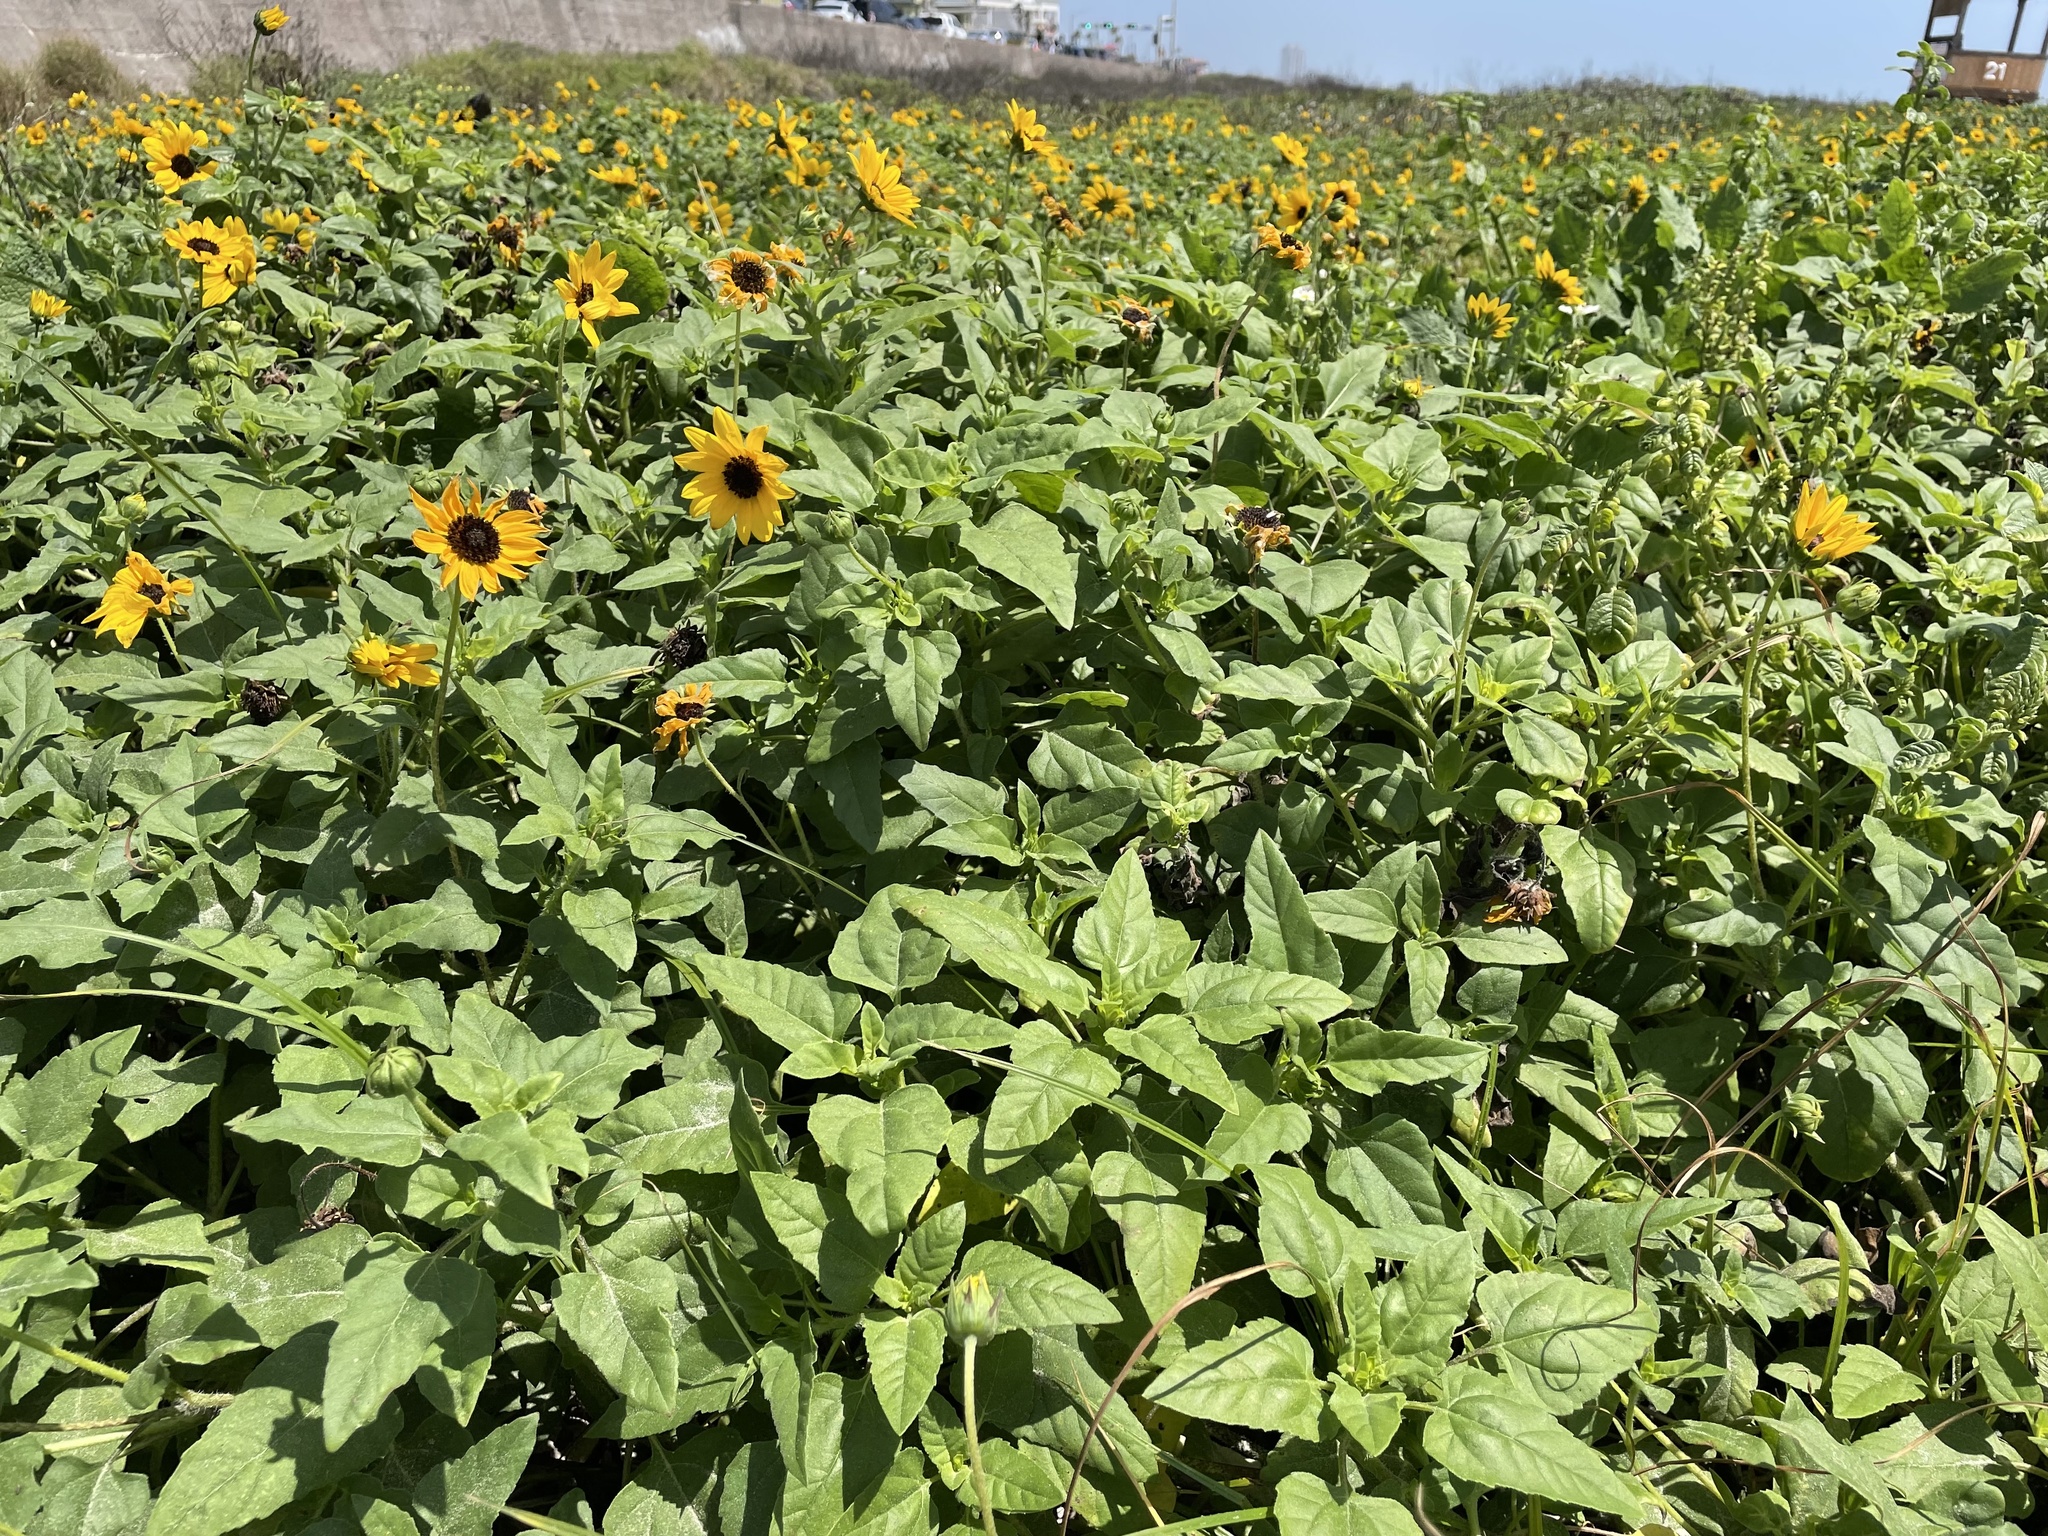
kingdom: Plantae
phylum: Tracheophyta
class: Magnoliopsida
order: Asterales
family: Asteraceae
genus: Helianthus
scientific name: Helianthus debilis
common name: Weak sunflower
